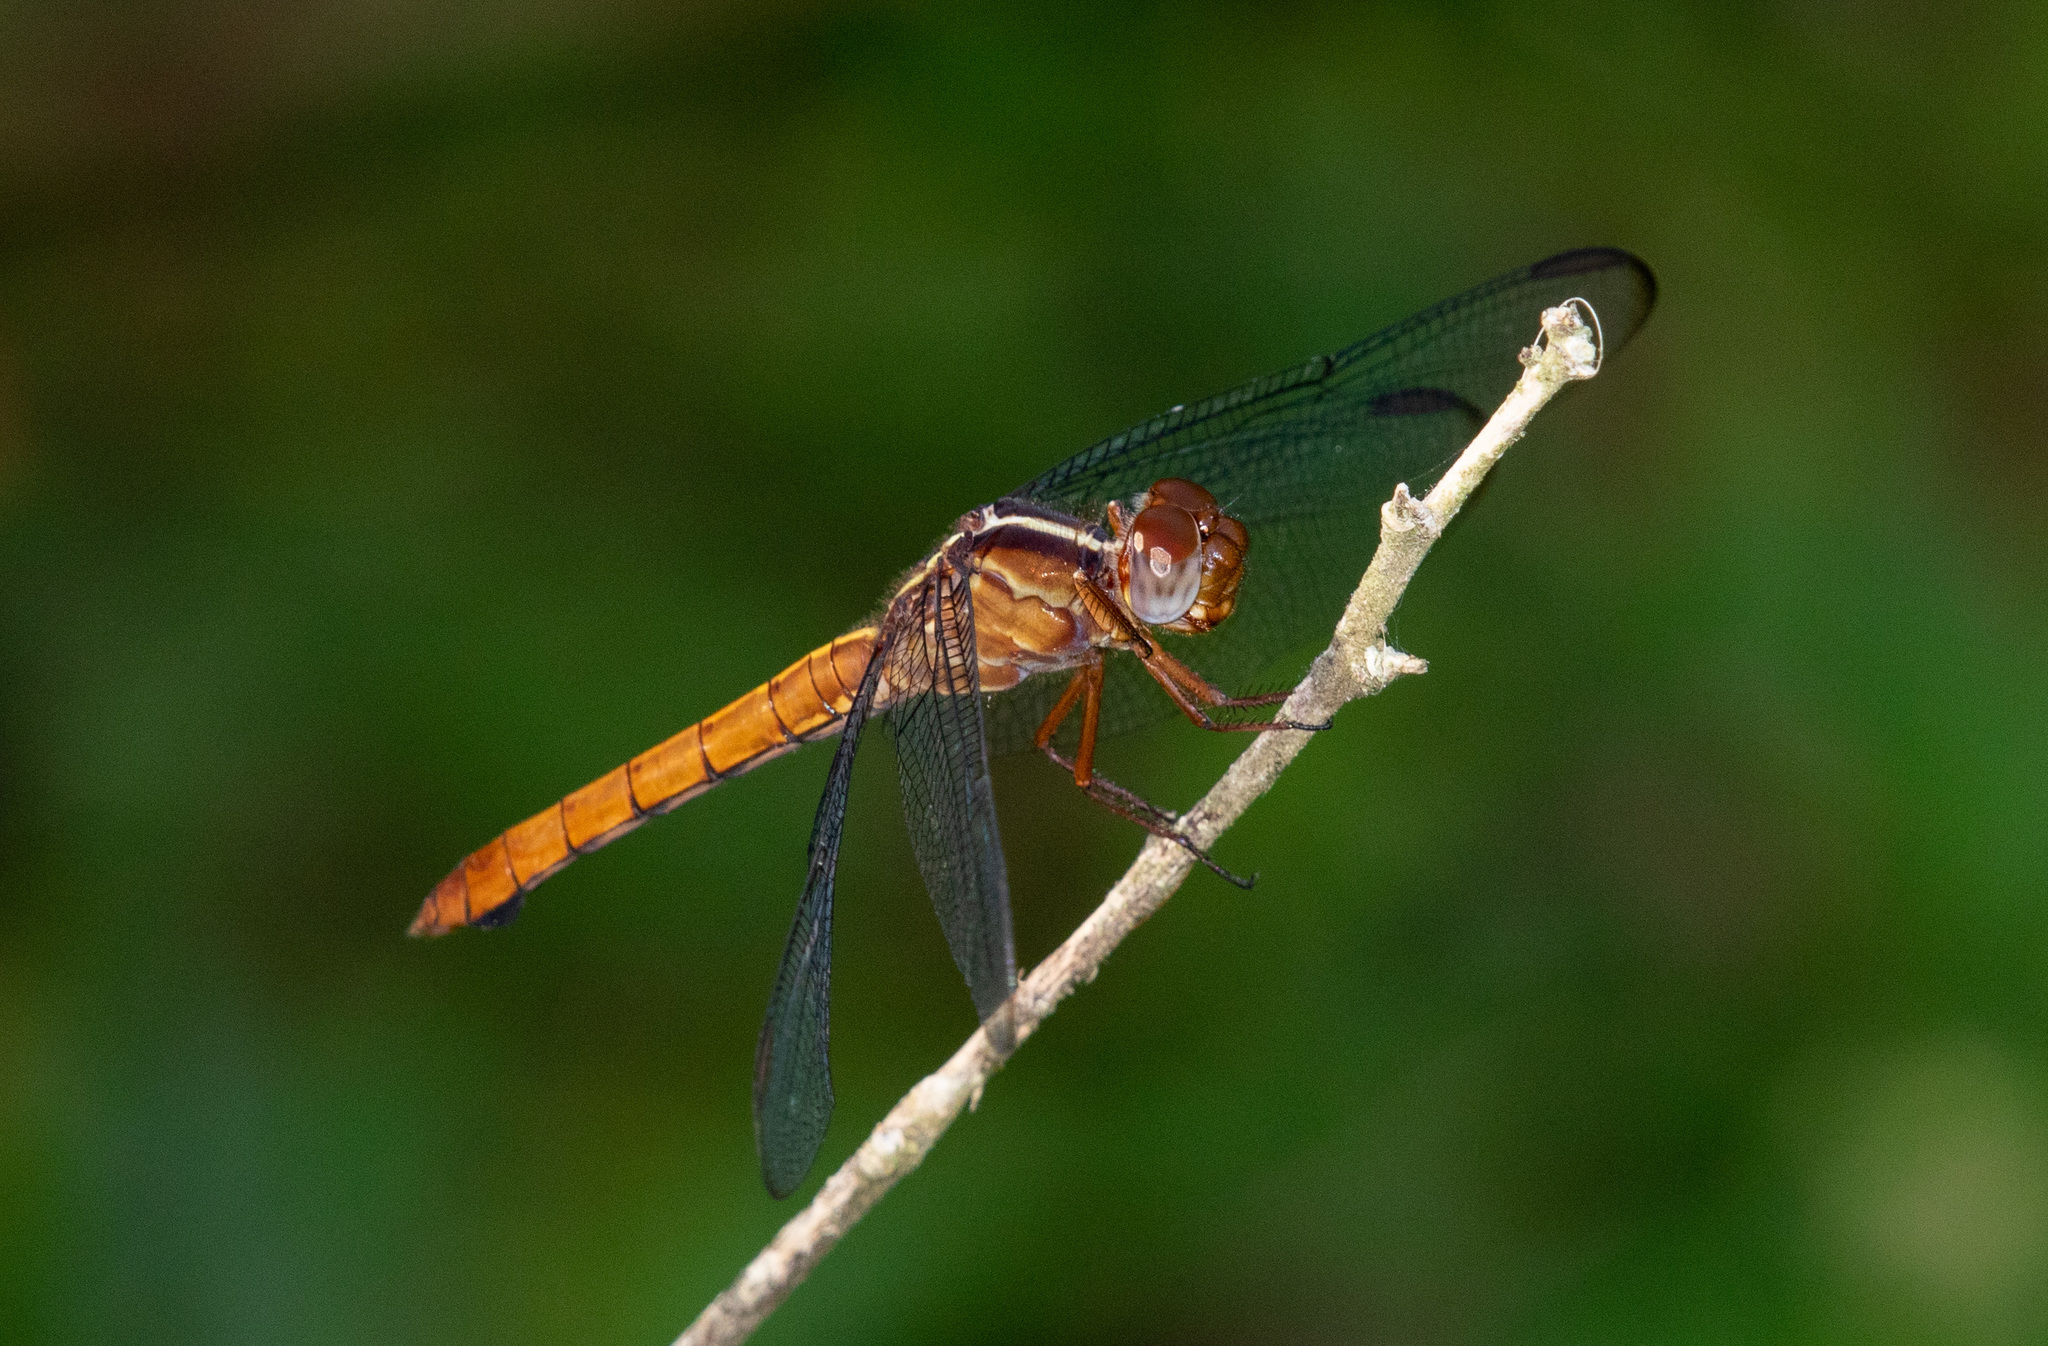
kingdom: Animalia
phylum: Arthropoda
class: Insecta
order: Odonata
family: Libellulidae
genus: Orthemis
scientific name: Orthemis discolor
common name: Carmine skimmer
